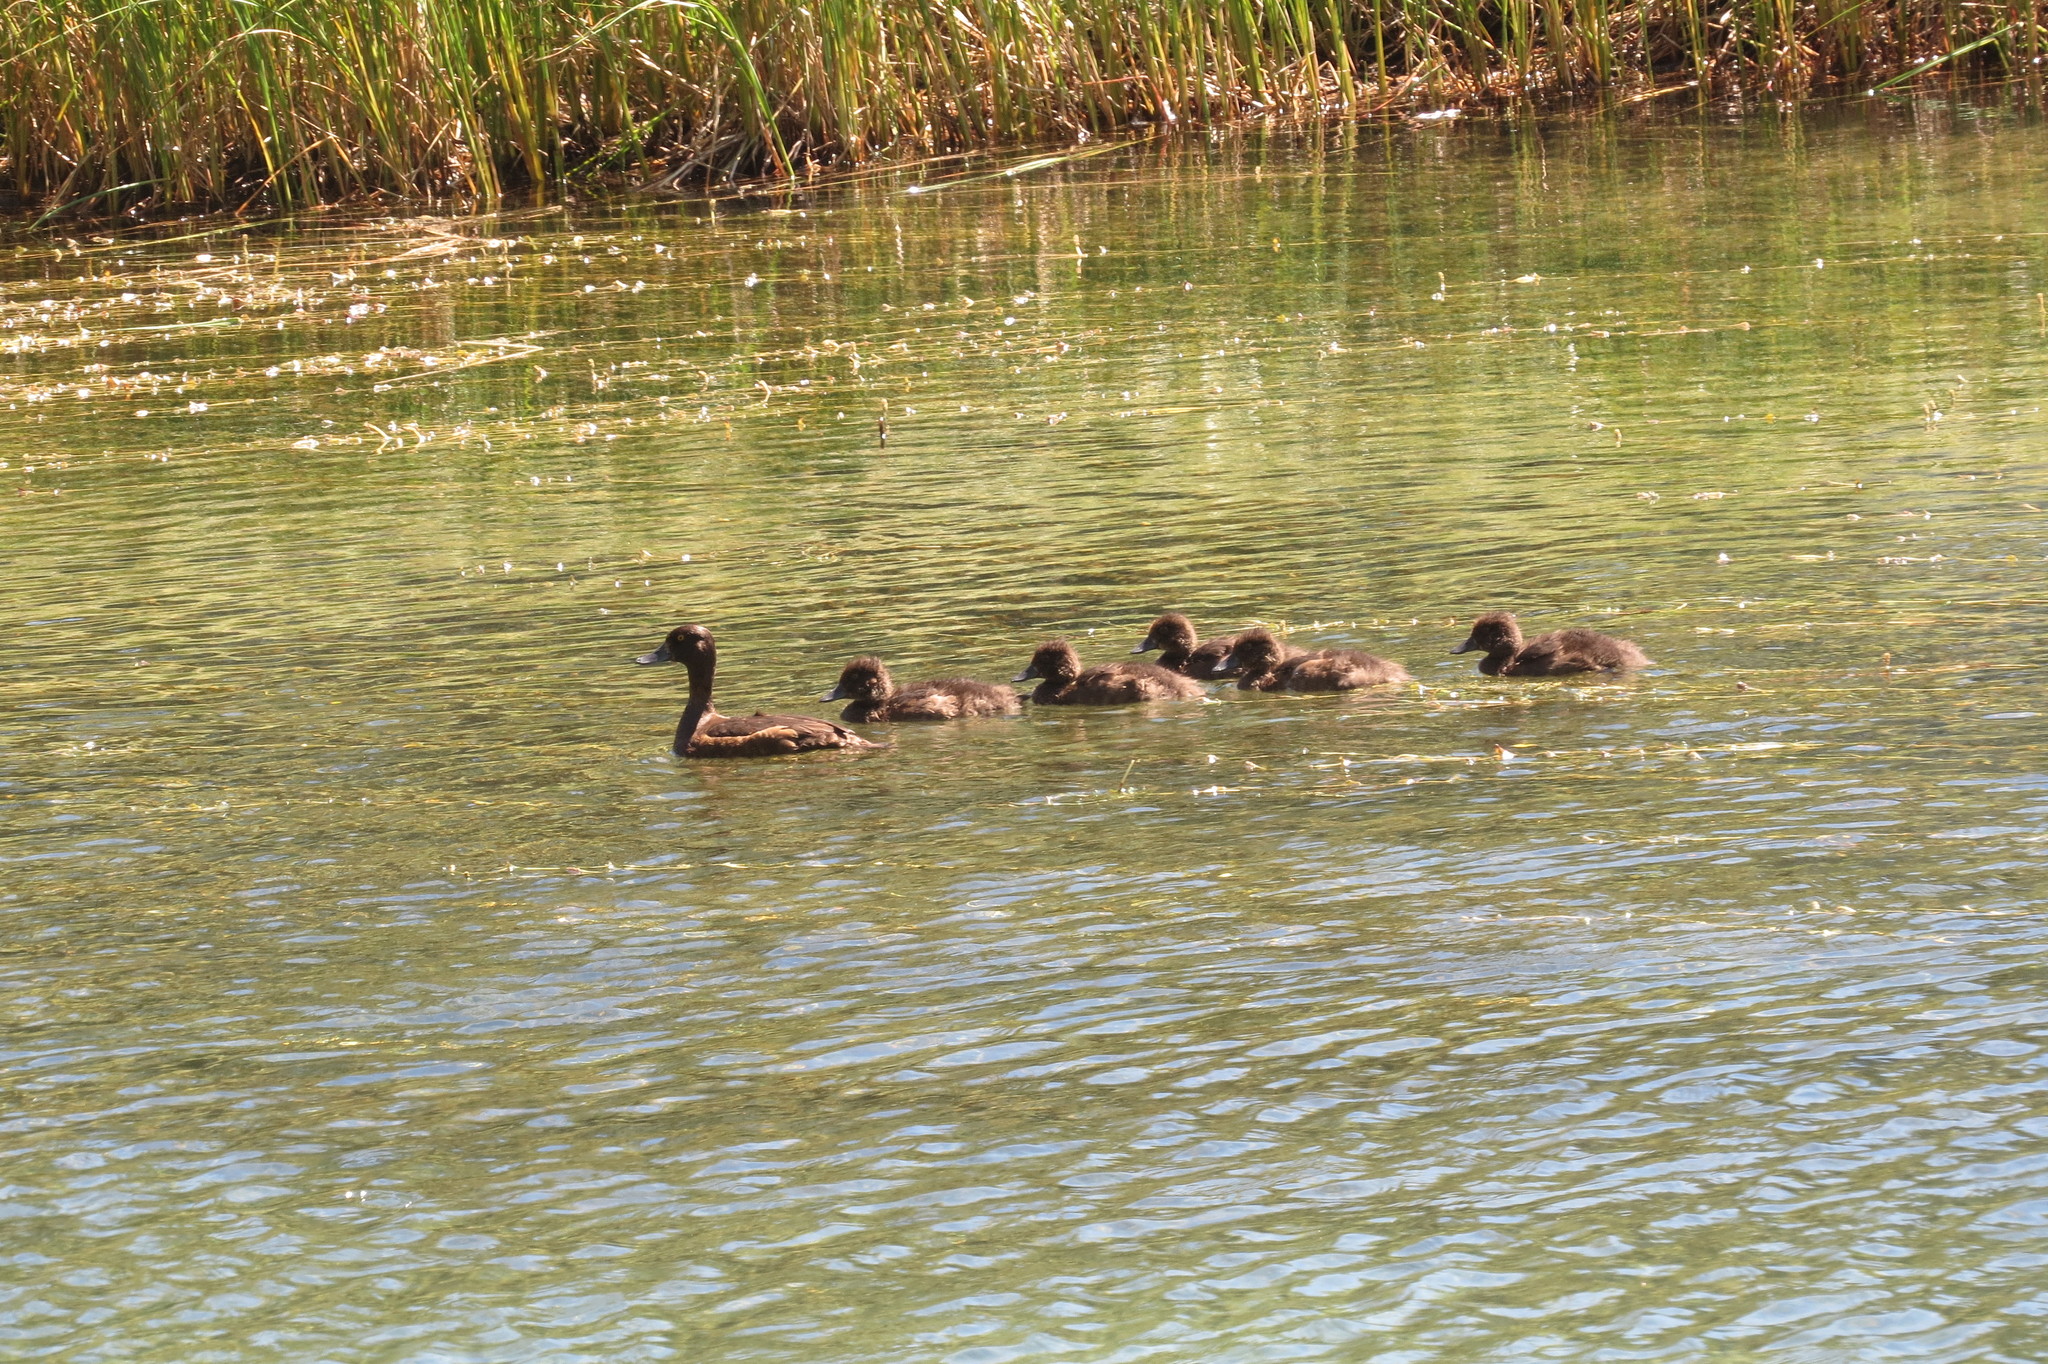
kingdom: Animalia
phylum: Chordata
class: Aves
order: Anseriformes
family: Anatidae
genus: Aythya
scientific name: Aythya fuligula
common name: Tufted duck
